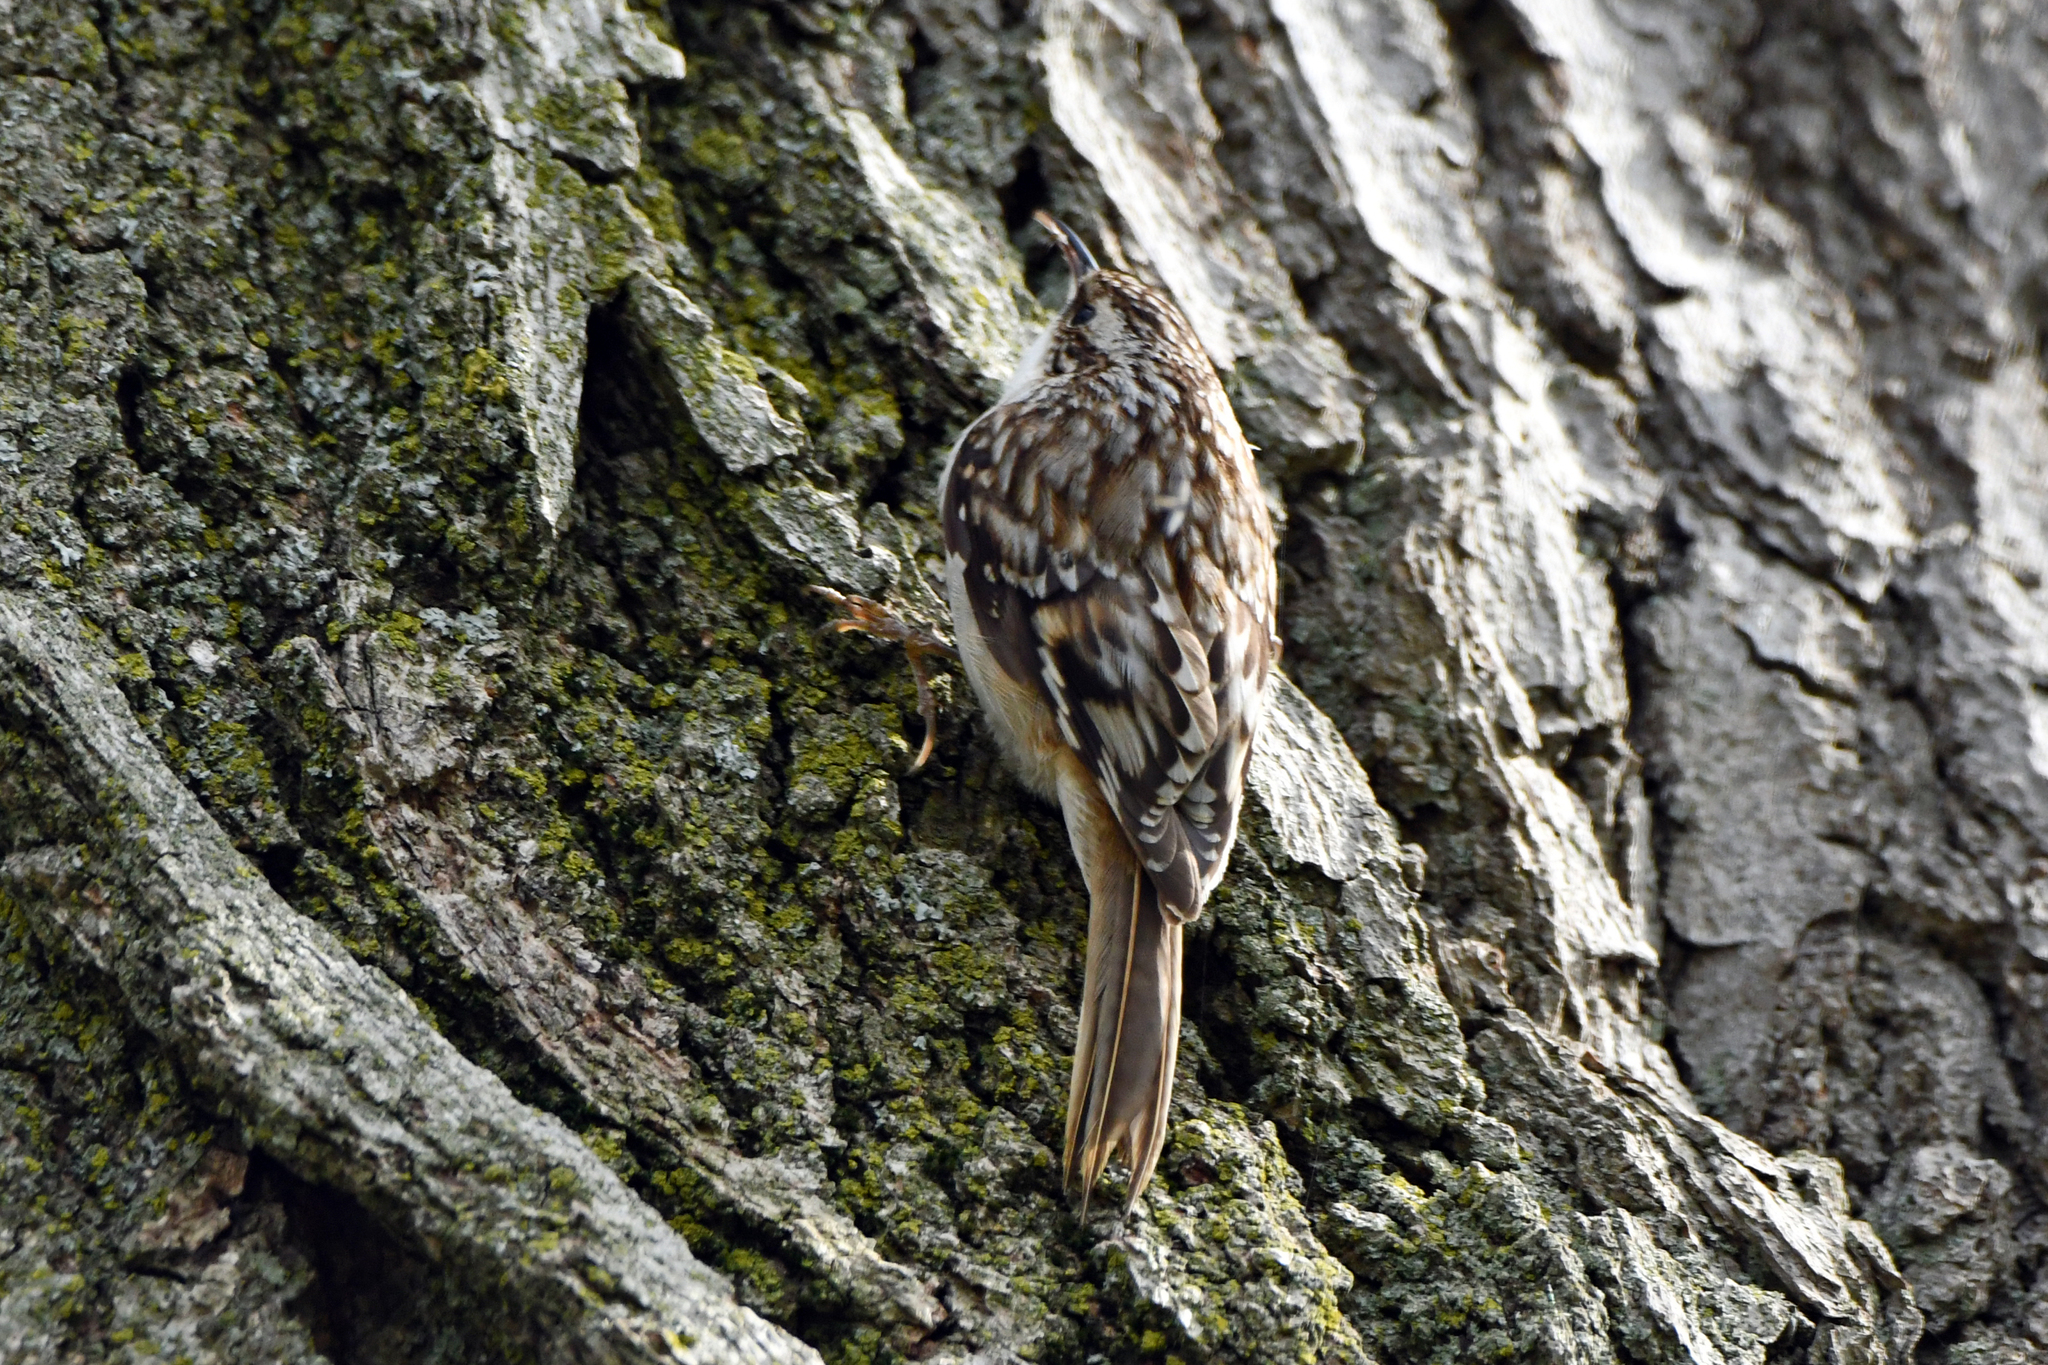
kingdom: Animalia
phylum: Chordata
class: Aves
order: Passeriformes
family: Certhiidae
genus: Certhia
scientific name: Certhia americana
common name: Brown creeper
